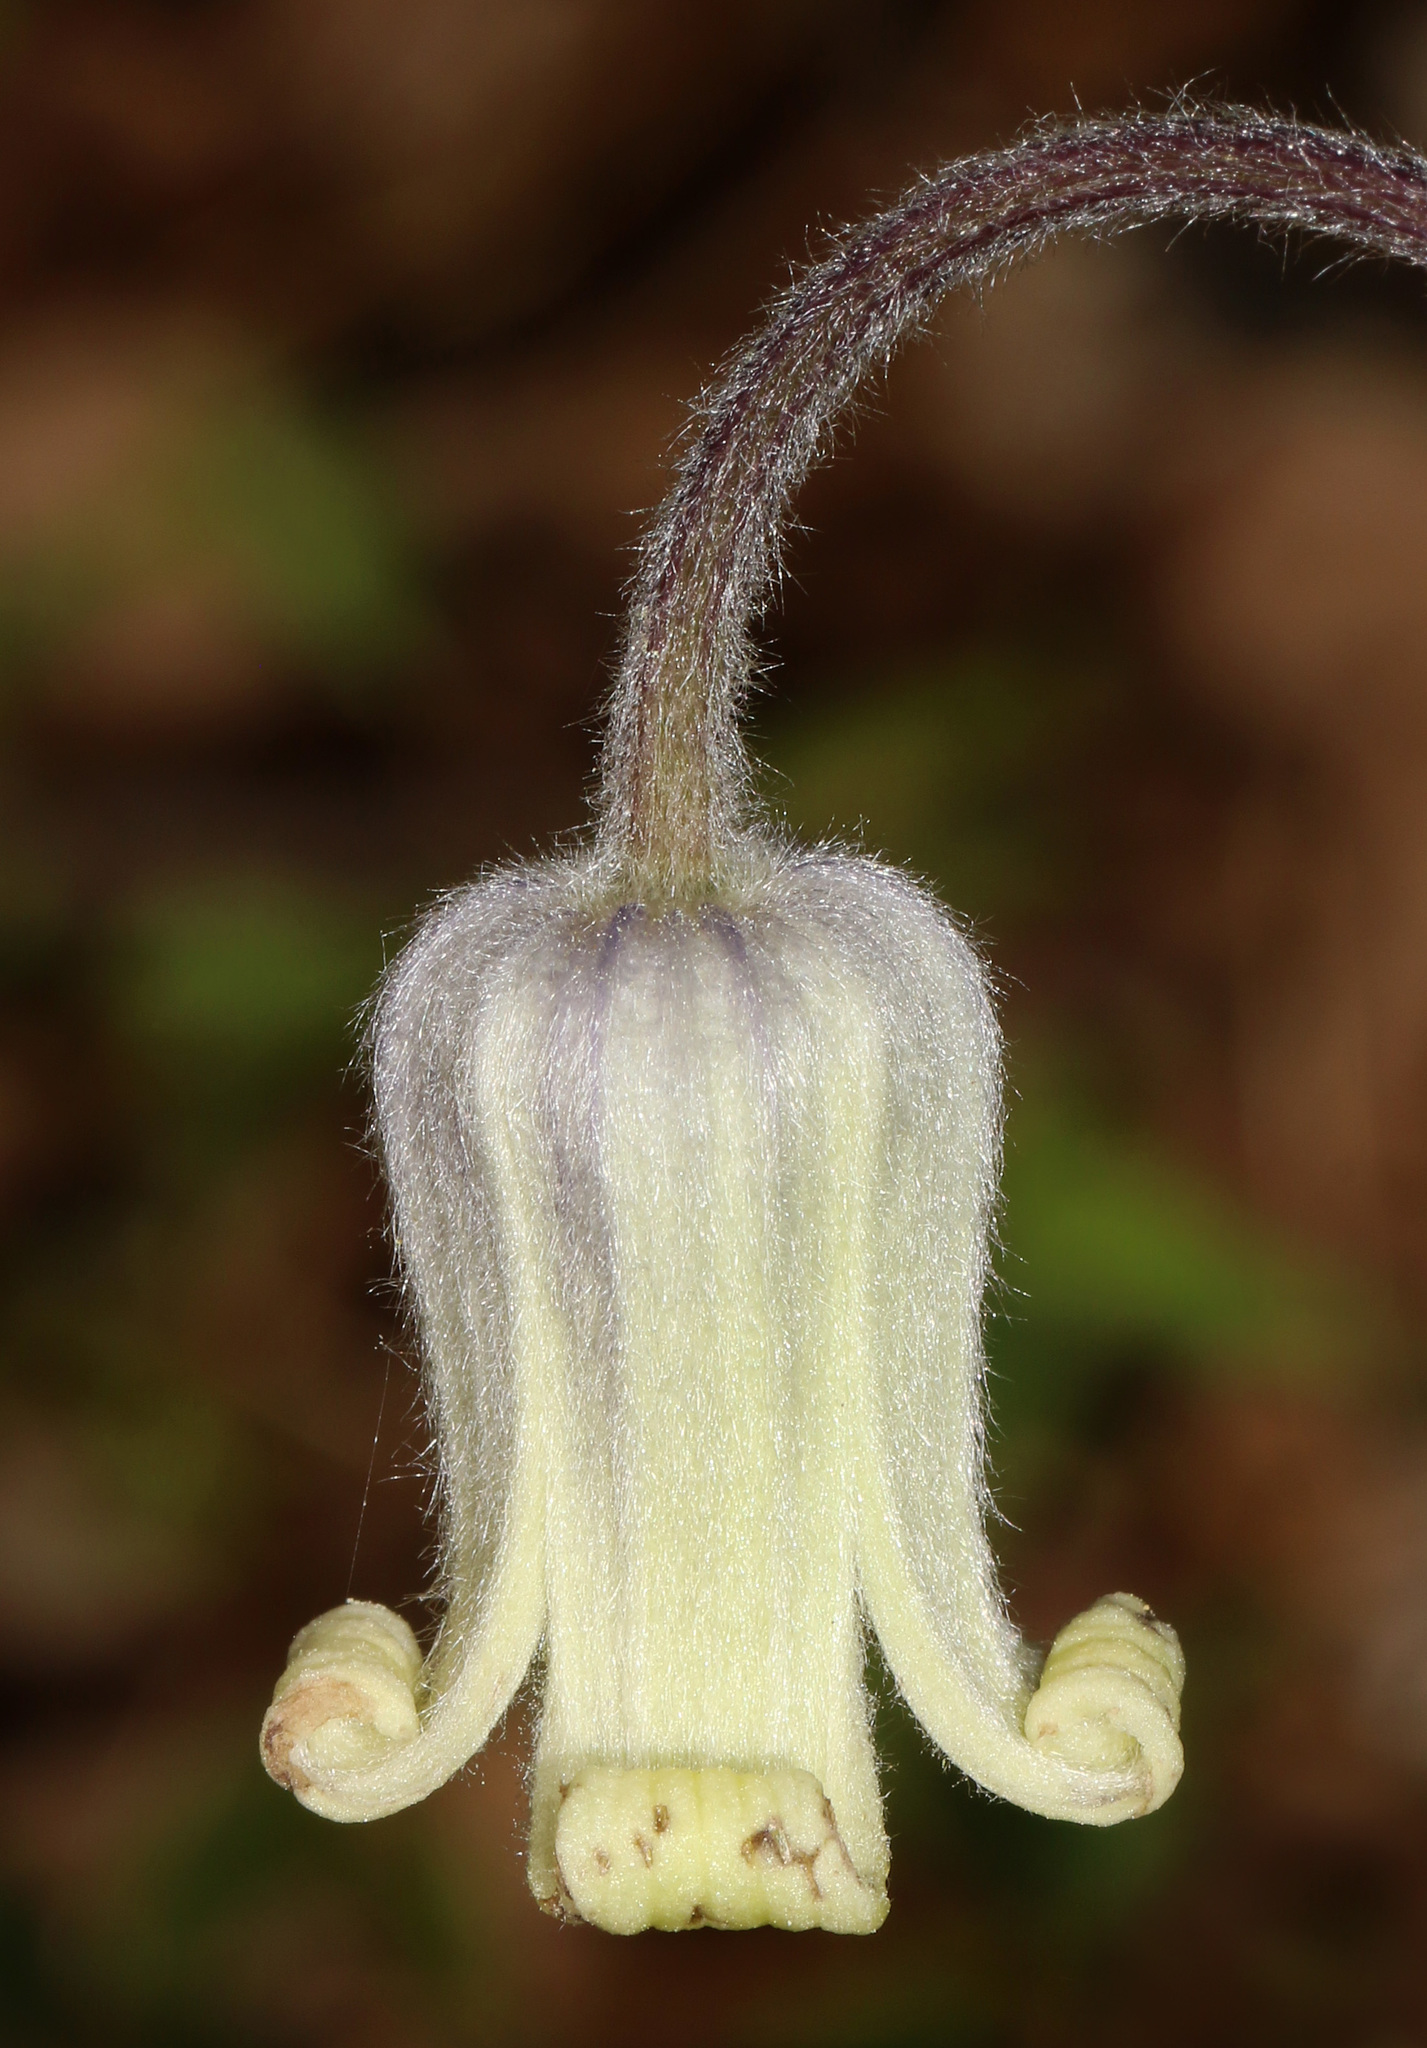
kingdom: Plantae
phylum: Tracheophyta
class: Magnoliopsida
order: Ranunculales
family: Ranunculaceae
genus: Clematis
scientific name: Clematis ochroleuca
